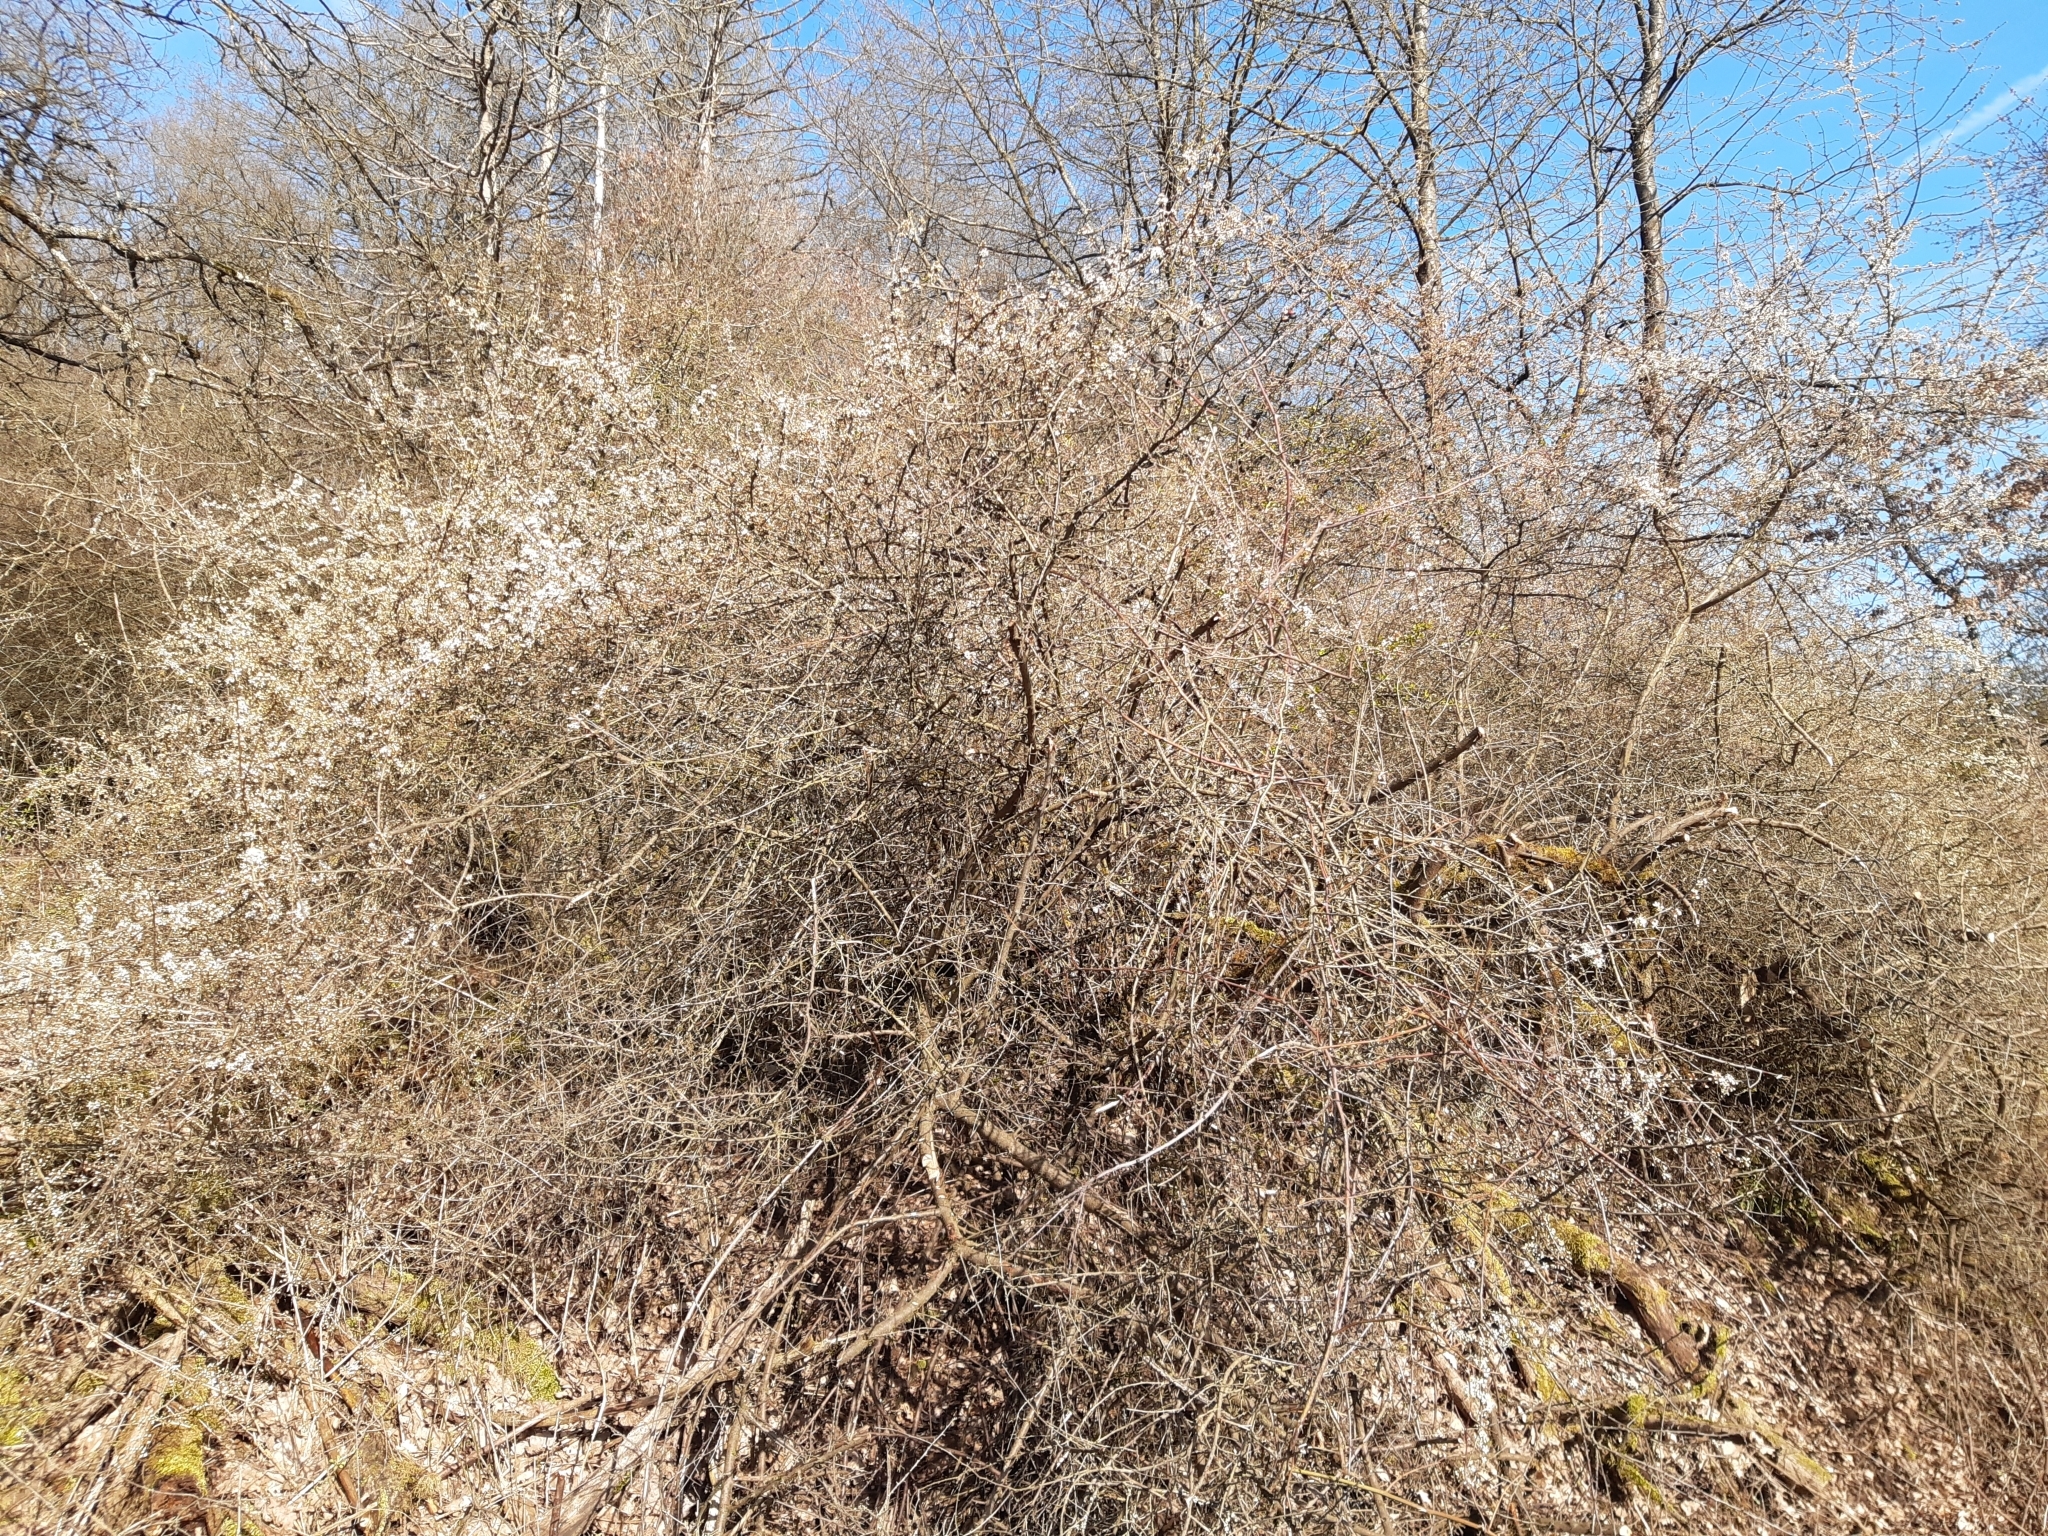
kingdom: Plantae
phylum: Tracheophyta
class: Magnoliopsida
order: Rosales
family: Rosaceae
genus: Prunus
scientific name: Prunus spinosa
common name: Blackthorn
